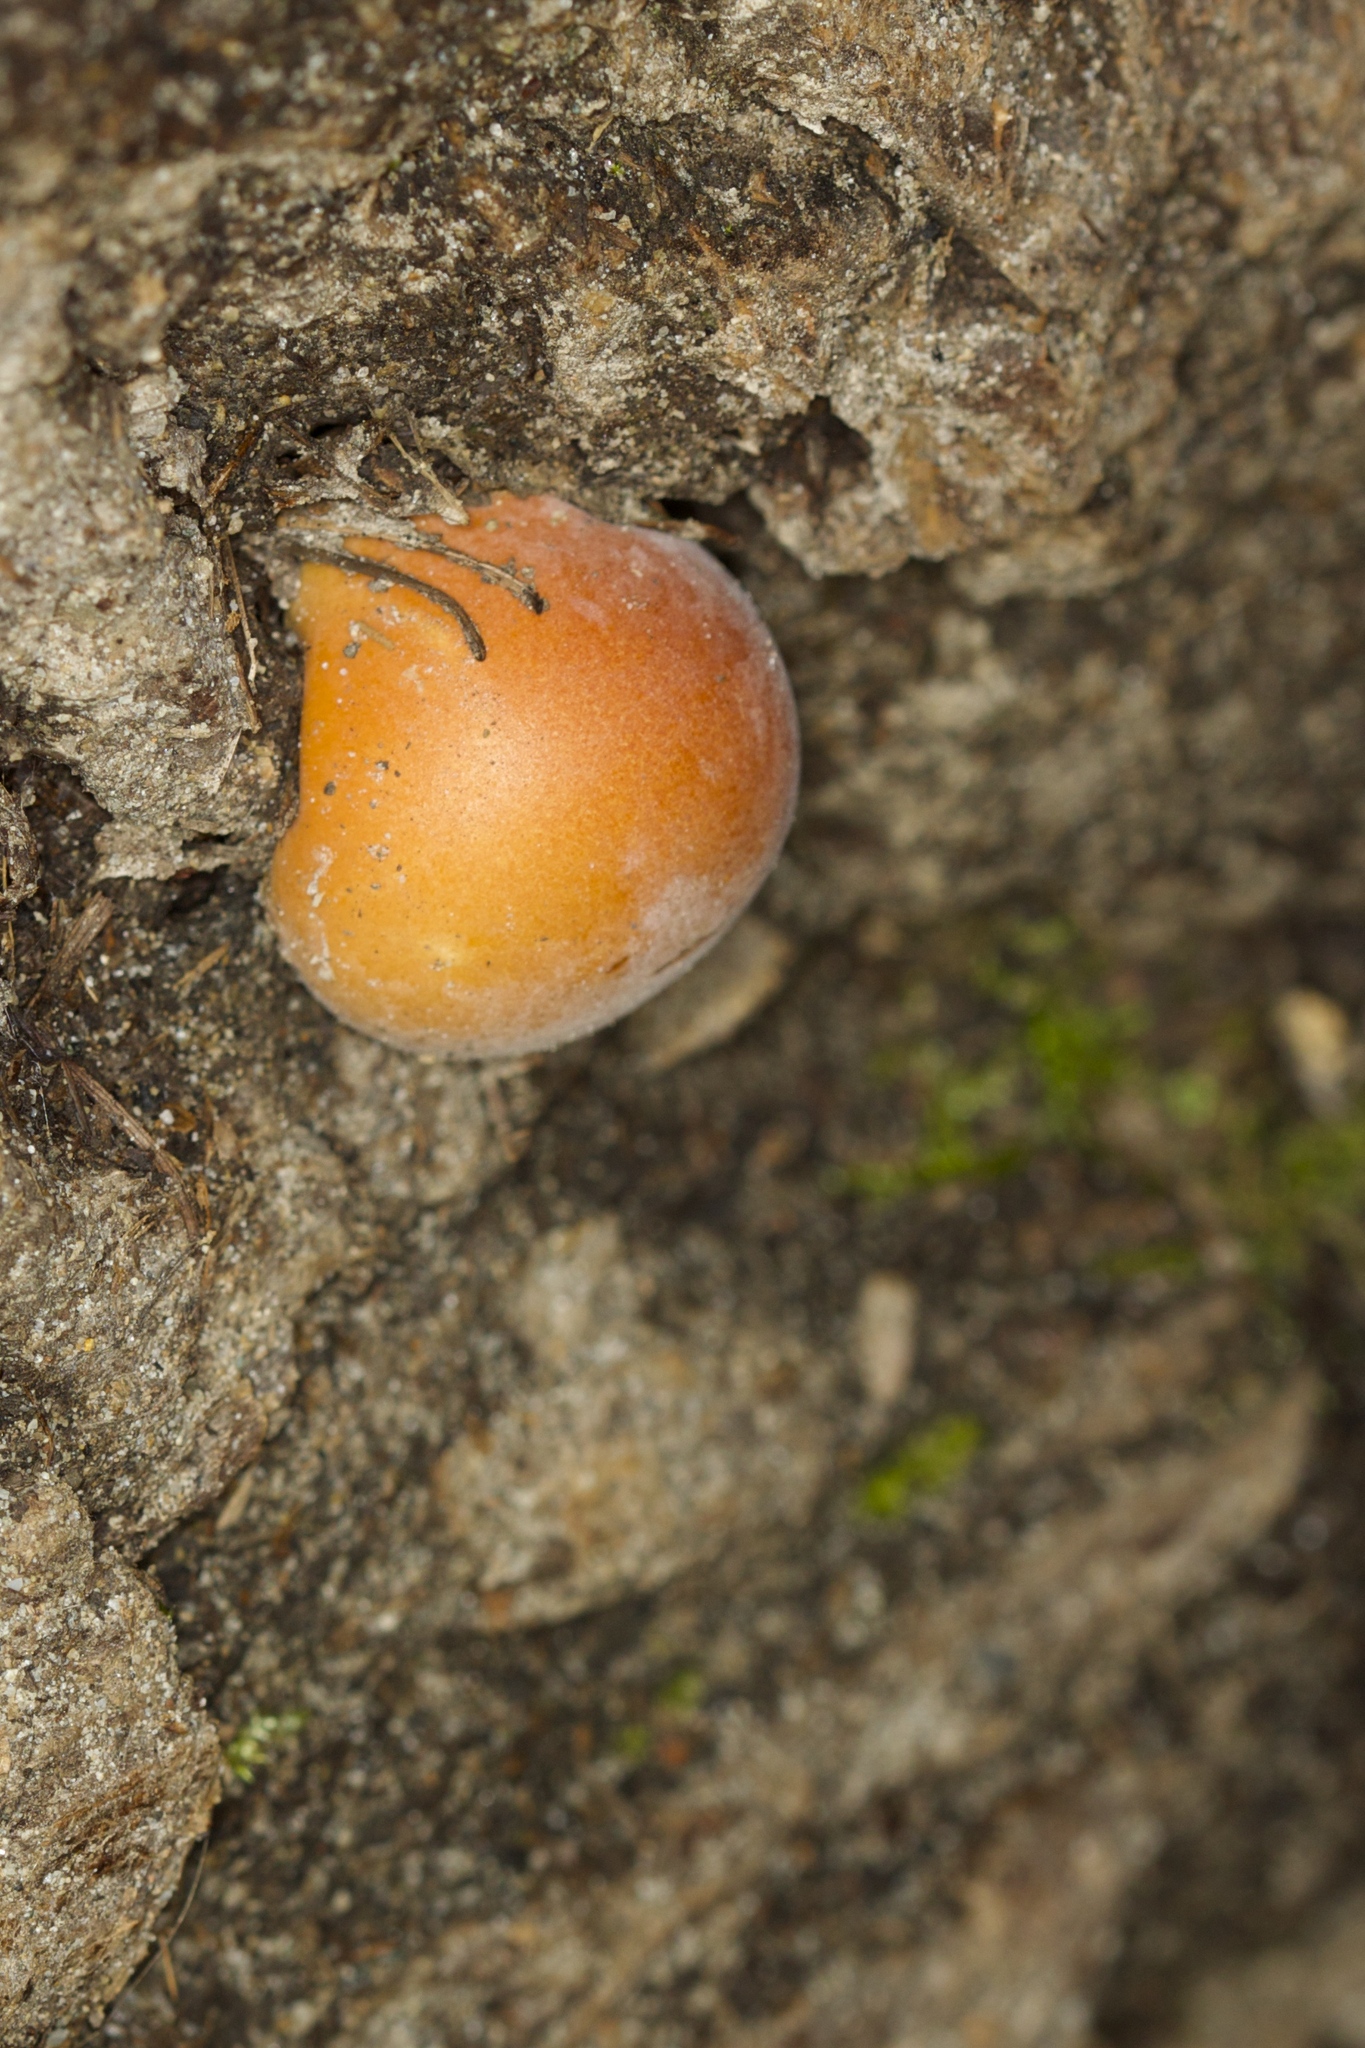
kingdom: Fungi
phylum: Basidiomycota
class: Agaricomycetes
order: Polyporales
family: Polyporaceae
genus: Cryptoporus
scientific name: Cryptoporus volvatus
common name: Veiled polypore
